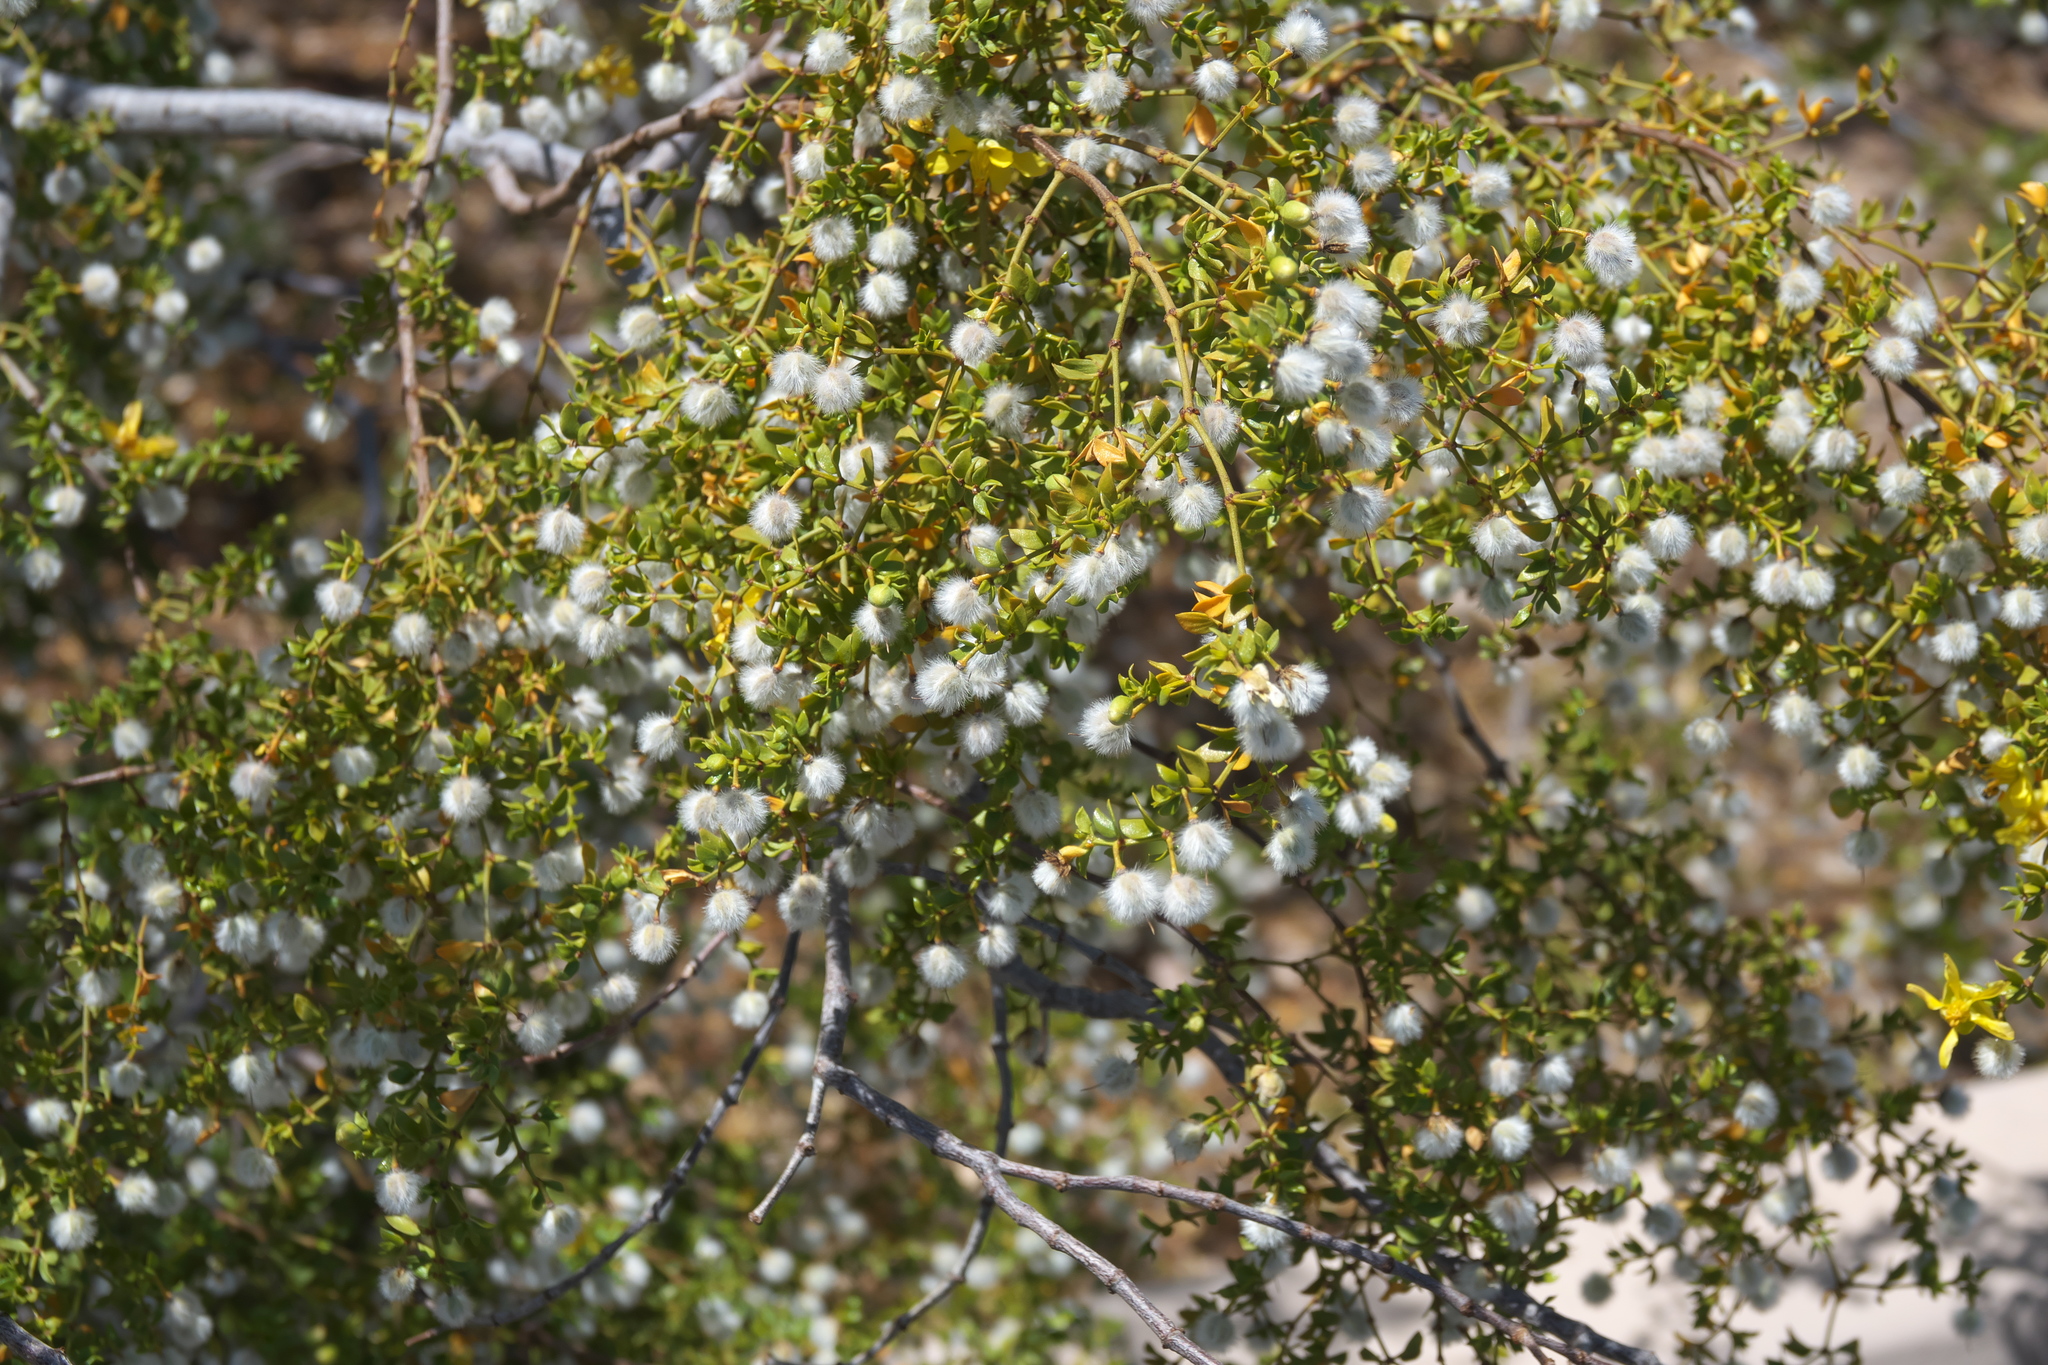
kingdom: Plantae
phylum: Tracheophyta
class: Magnoliopsida
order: Zygophyllales
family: Zygophyllaceae
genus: Larrea
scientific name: Larrea tridentata
